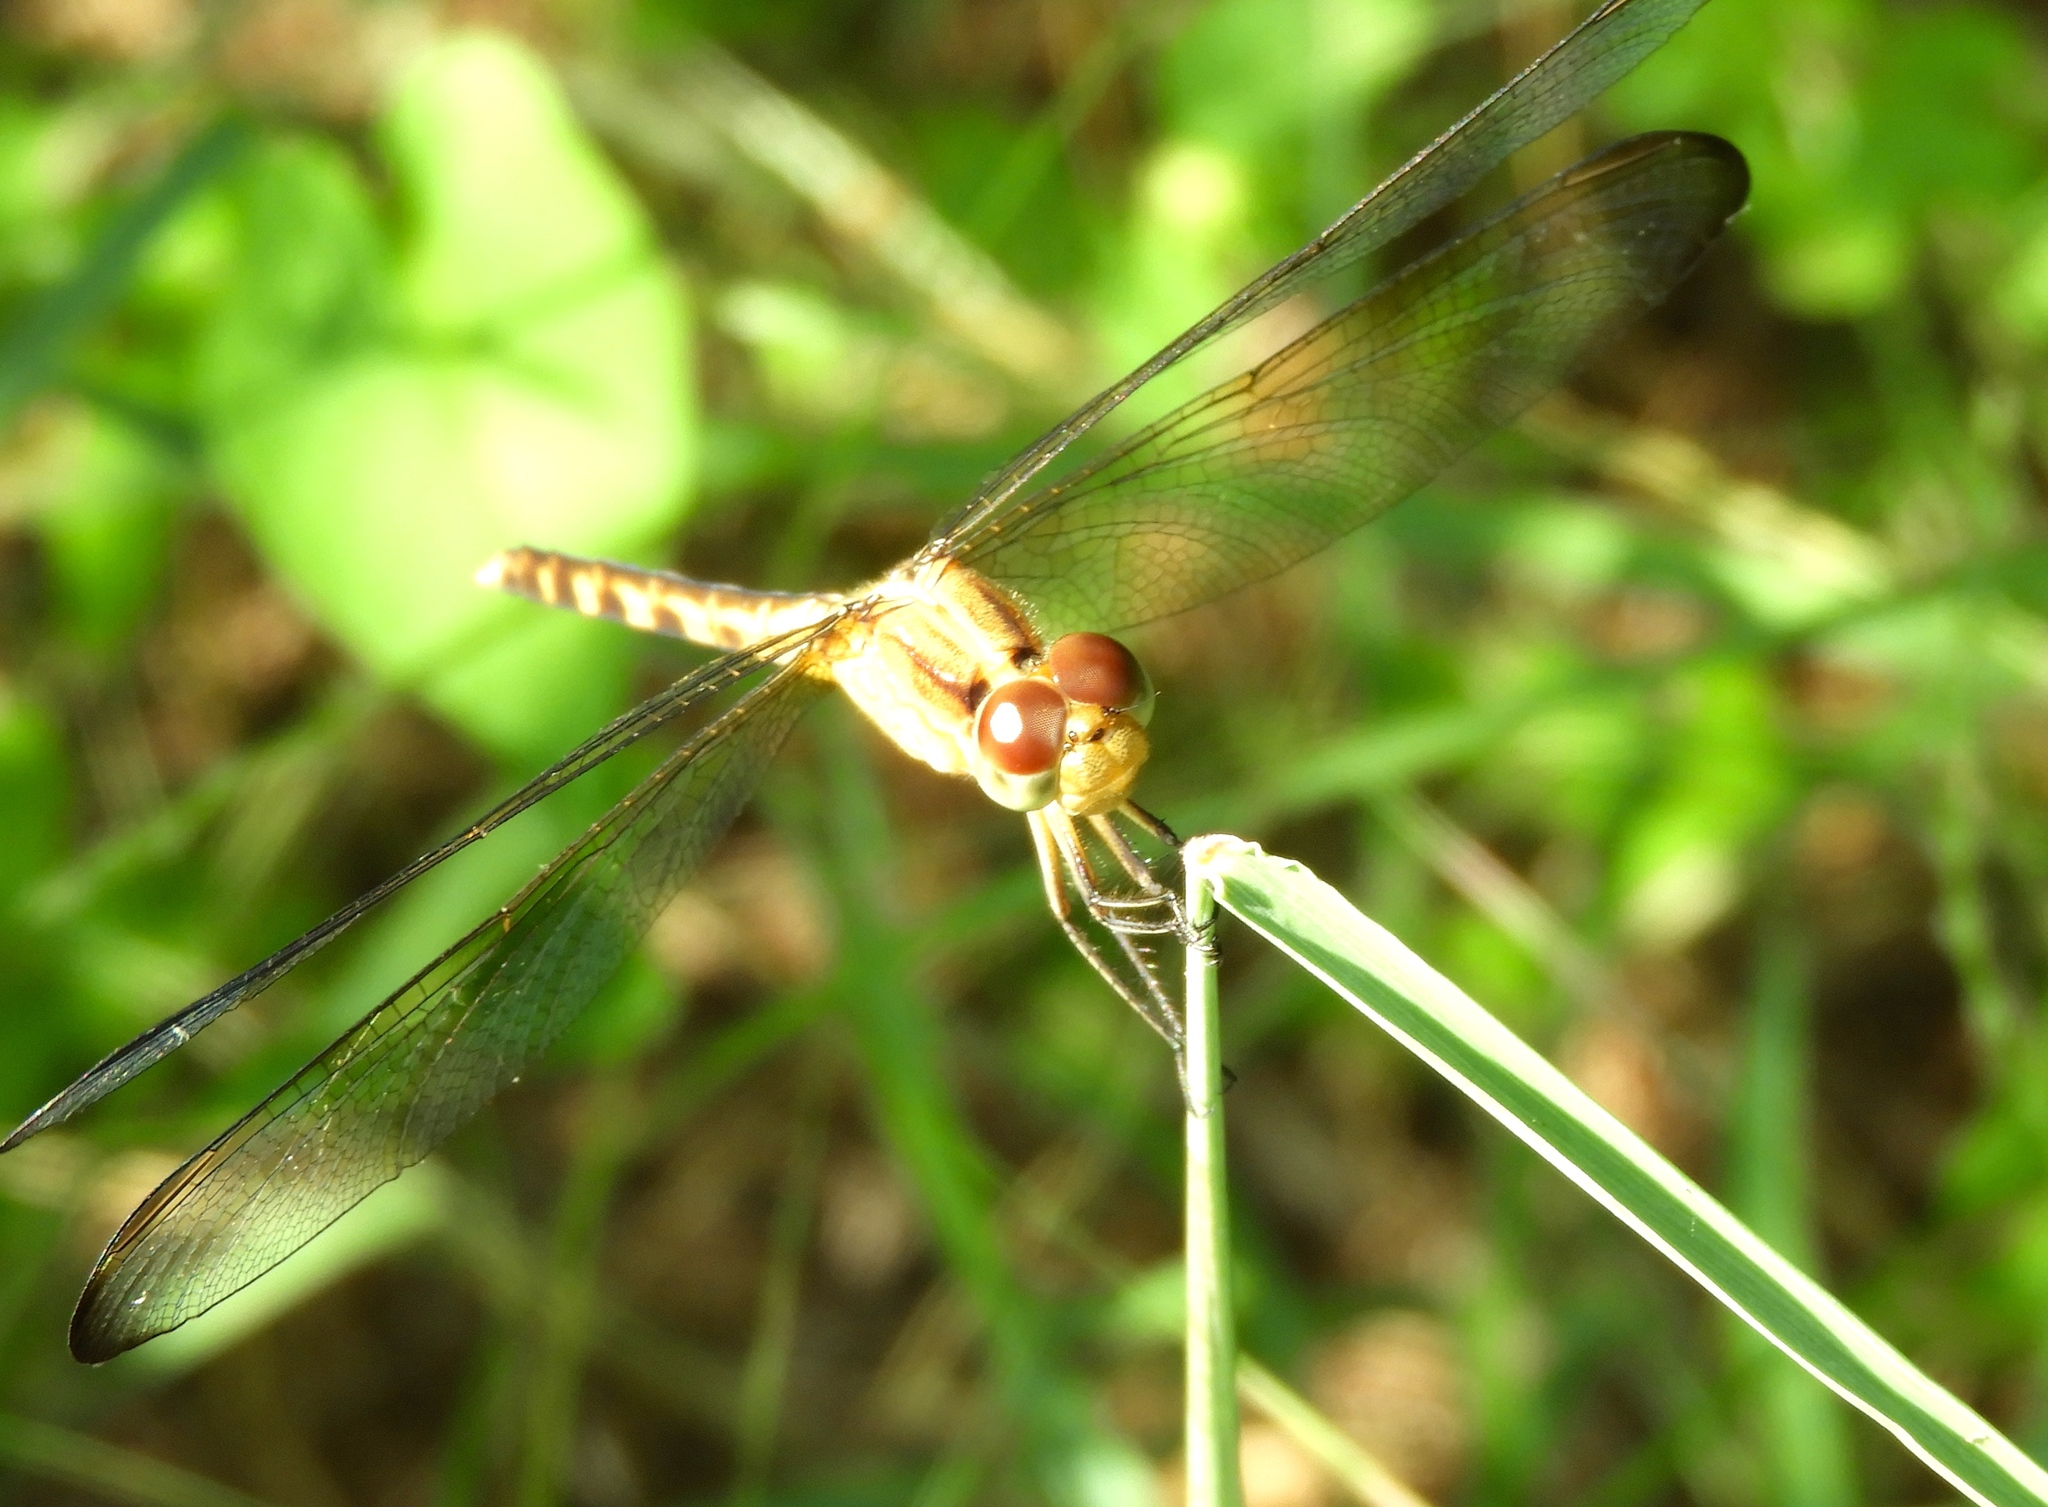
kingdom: Animalia
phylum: Arthropoda
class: Insecta
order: Odonata
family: Libellulidae
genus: Erythrodiplax
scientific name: Erythrodiplax funerea
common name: Black-winged dragonlet
